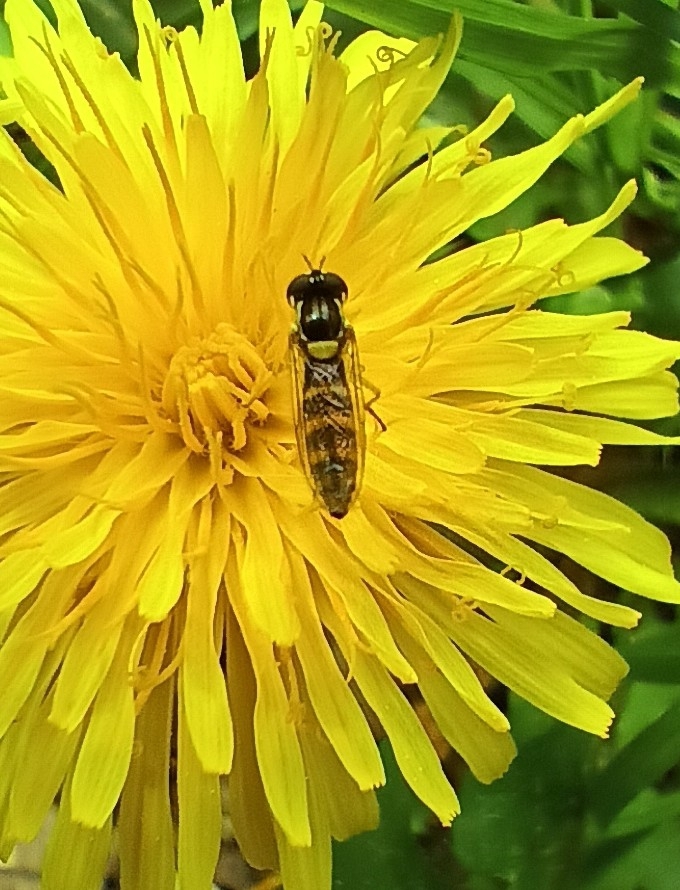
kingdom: Animalia
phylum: Arthropoda
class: Insecta
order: Diptera
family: Syrphidae
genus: Sphaerophoria
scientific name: Sphaerophoria scripta
